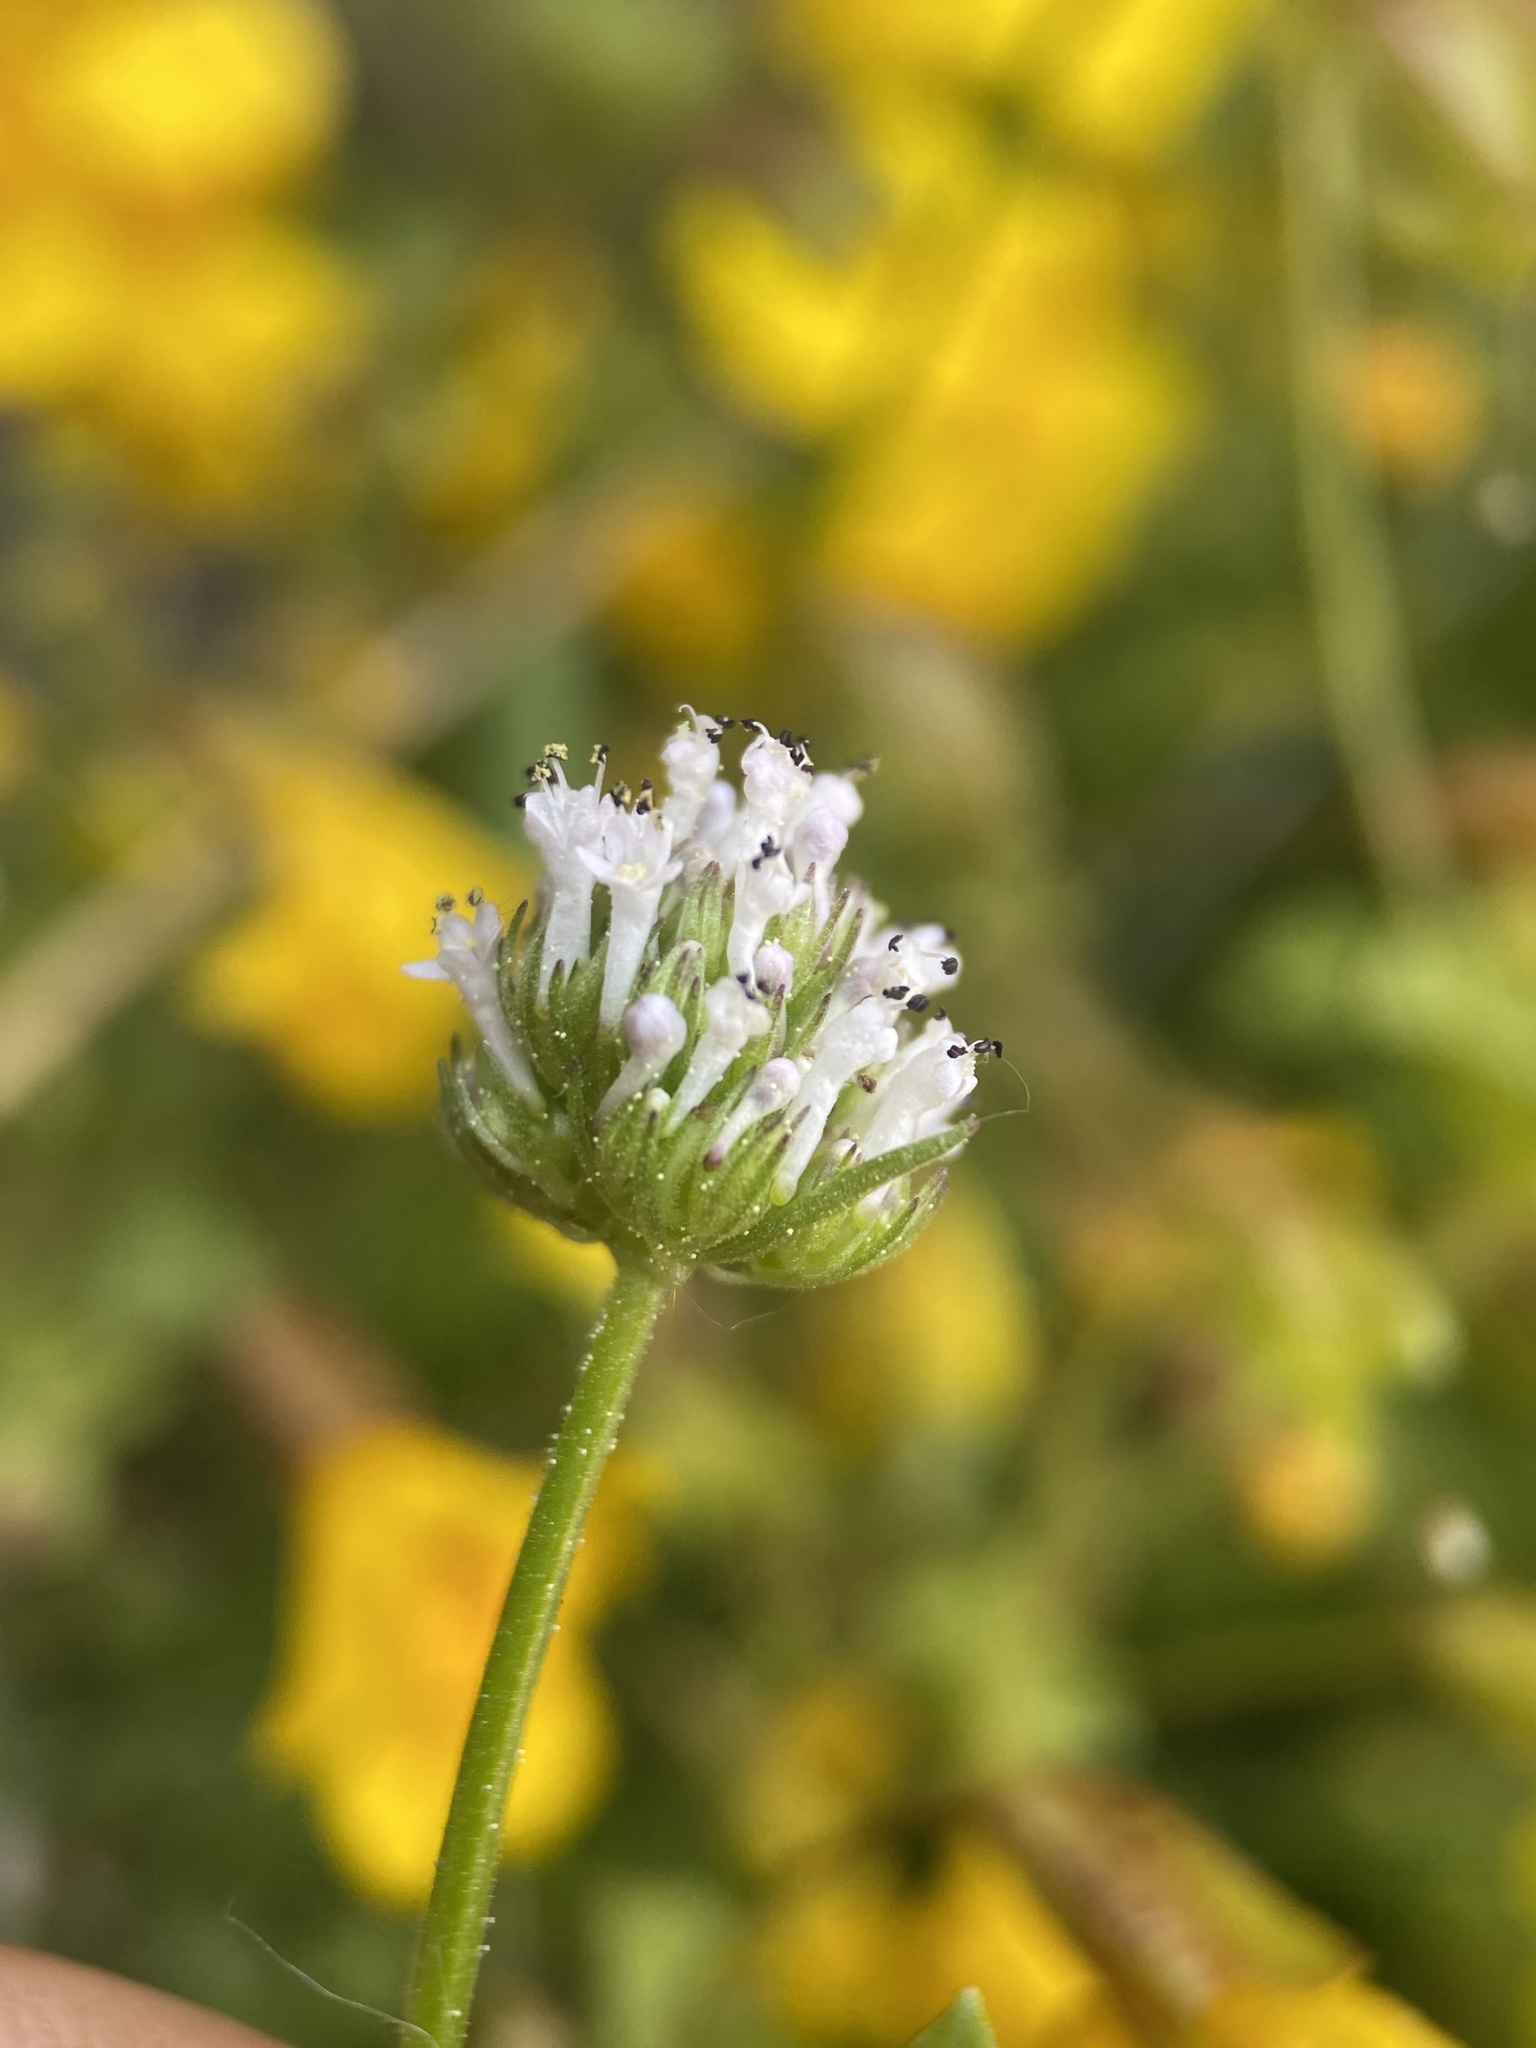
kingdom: Plantae
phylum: Tracheophyta
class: Magnoliopsida
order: Dipsacales
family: Caprifoliaceae
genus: Plectritis
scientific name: Plectritis macroptera
